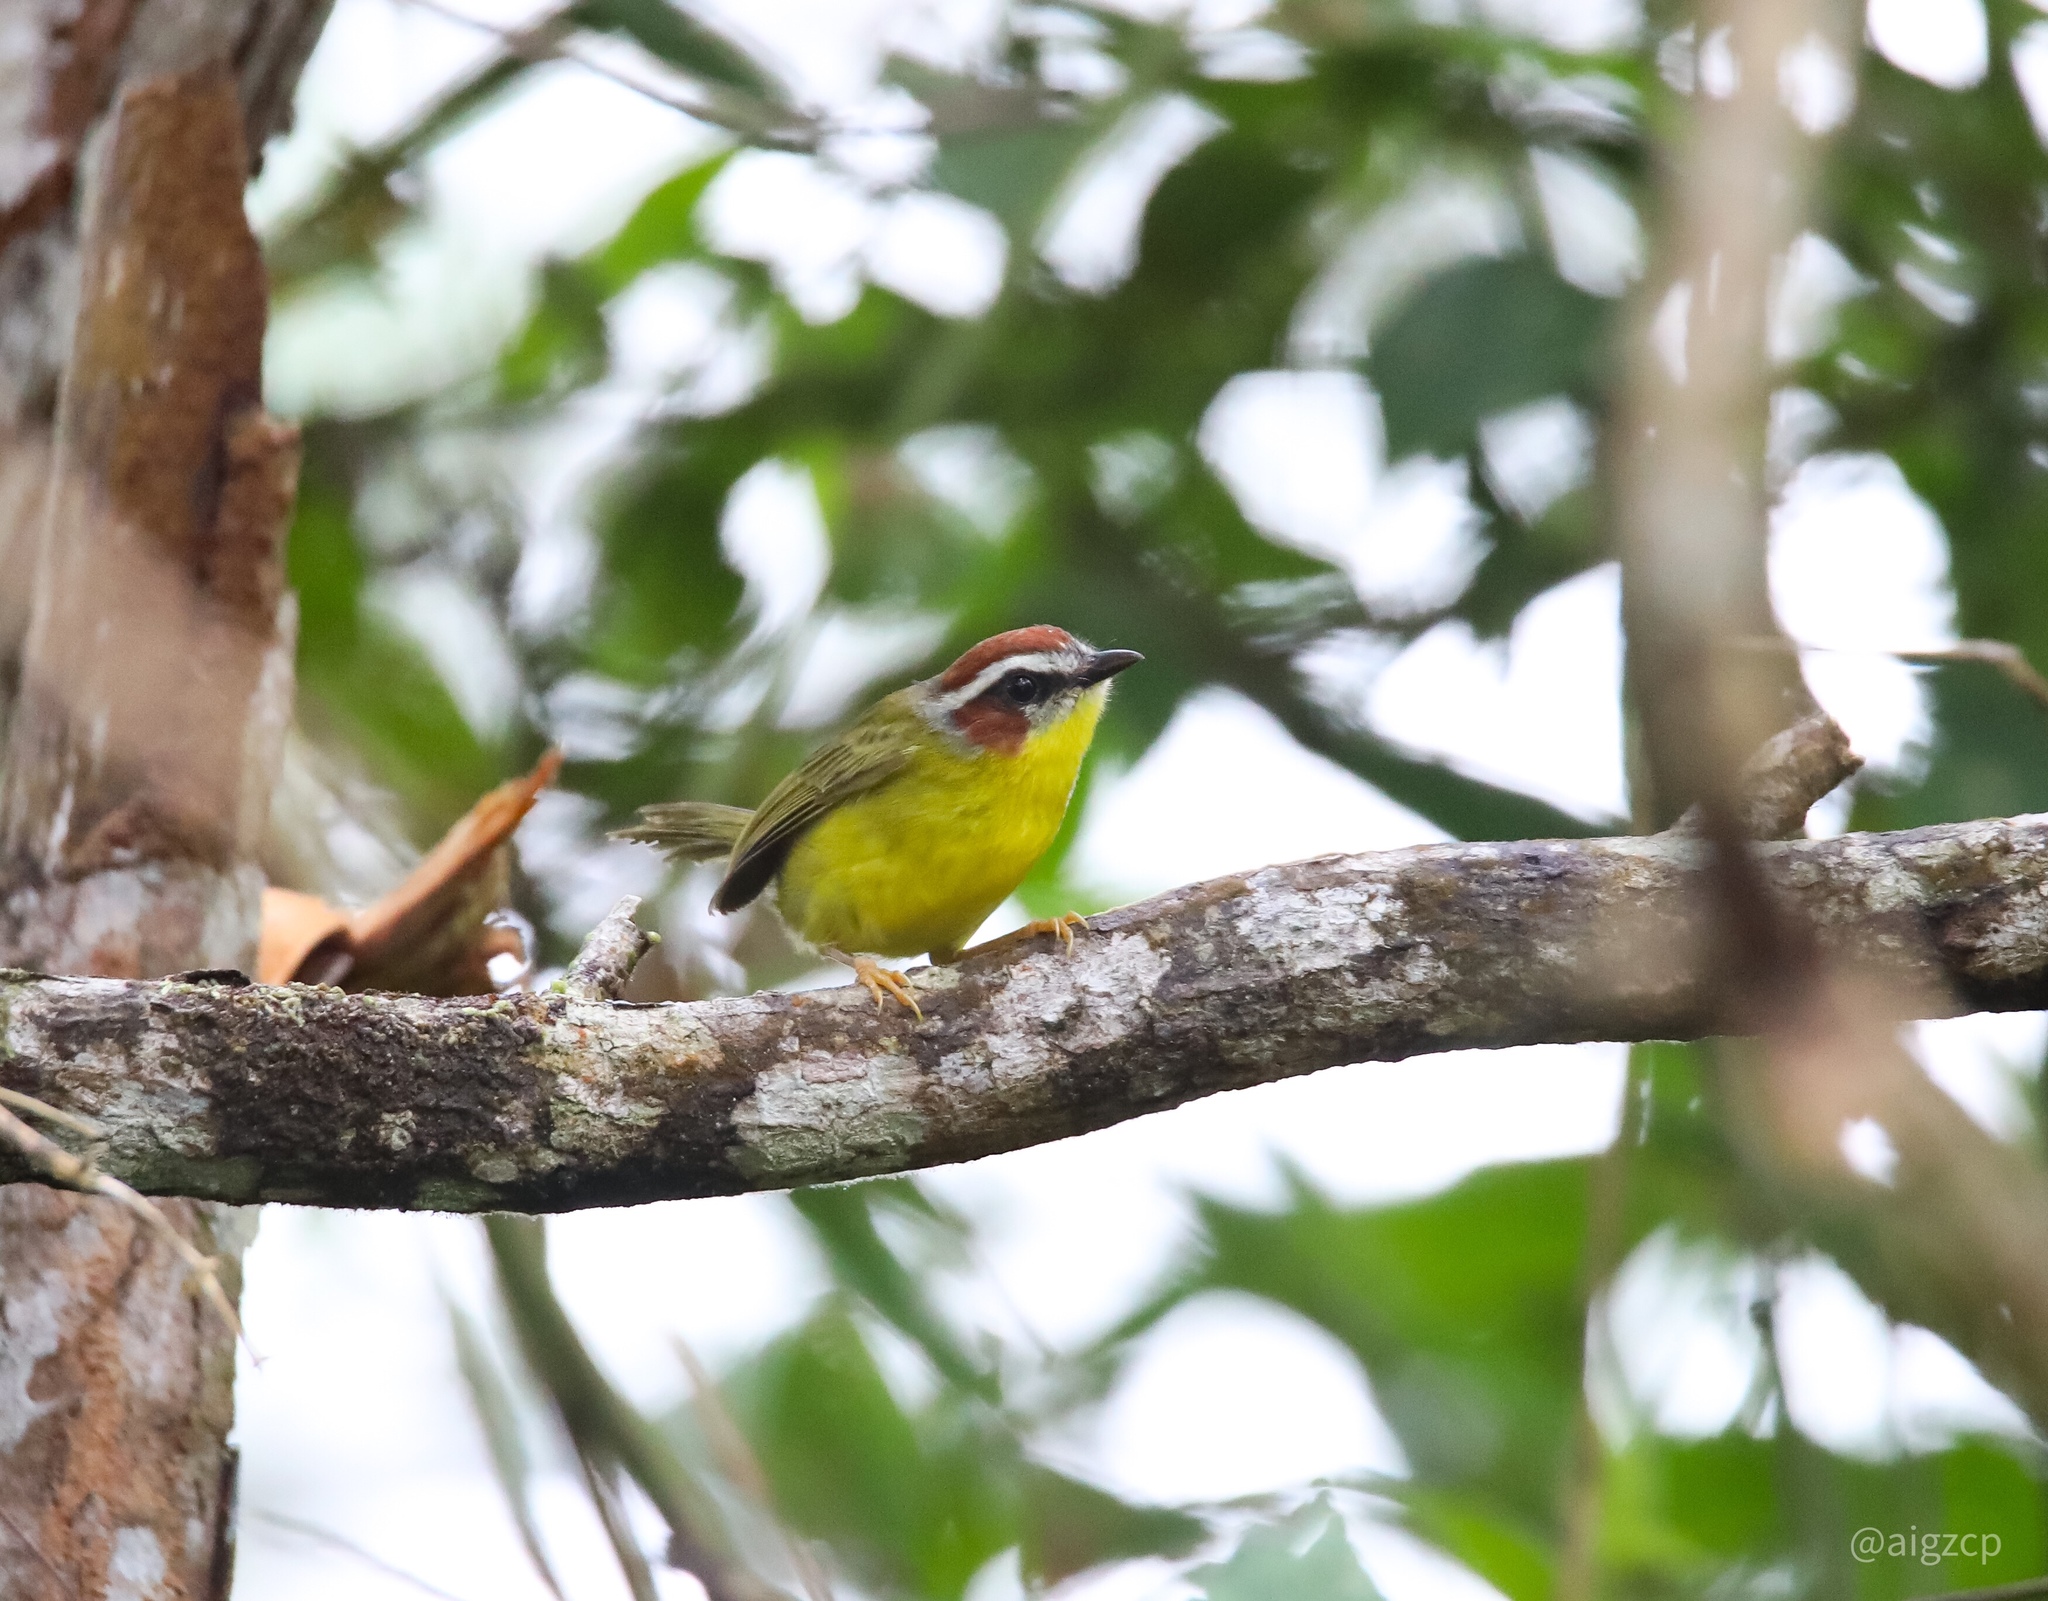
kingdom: Animalia
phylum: Chordata
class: Aves
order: Passeriformes
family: Parulidae
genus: Basileuterus
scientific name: Basileuterus rufifrons
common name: Rufous-capped warbler
